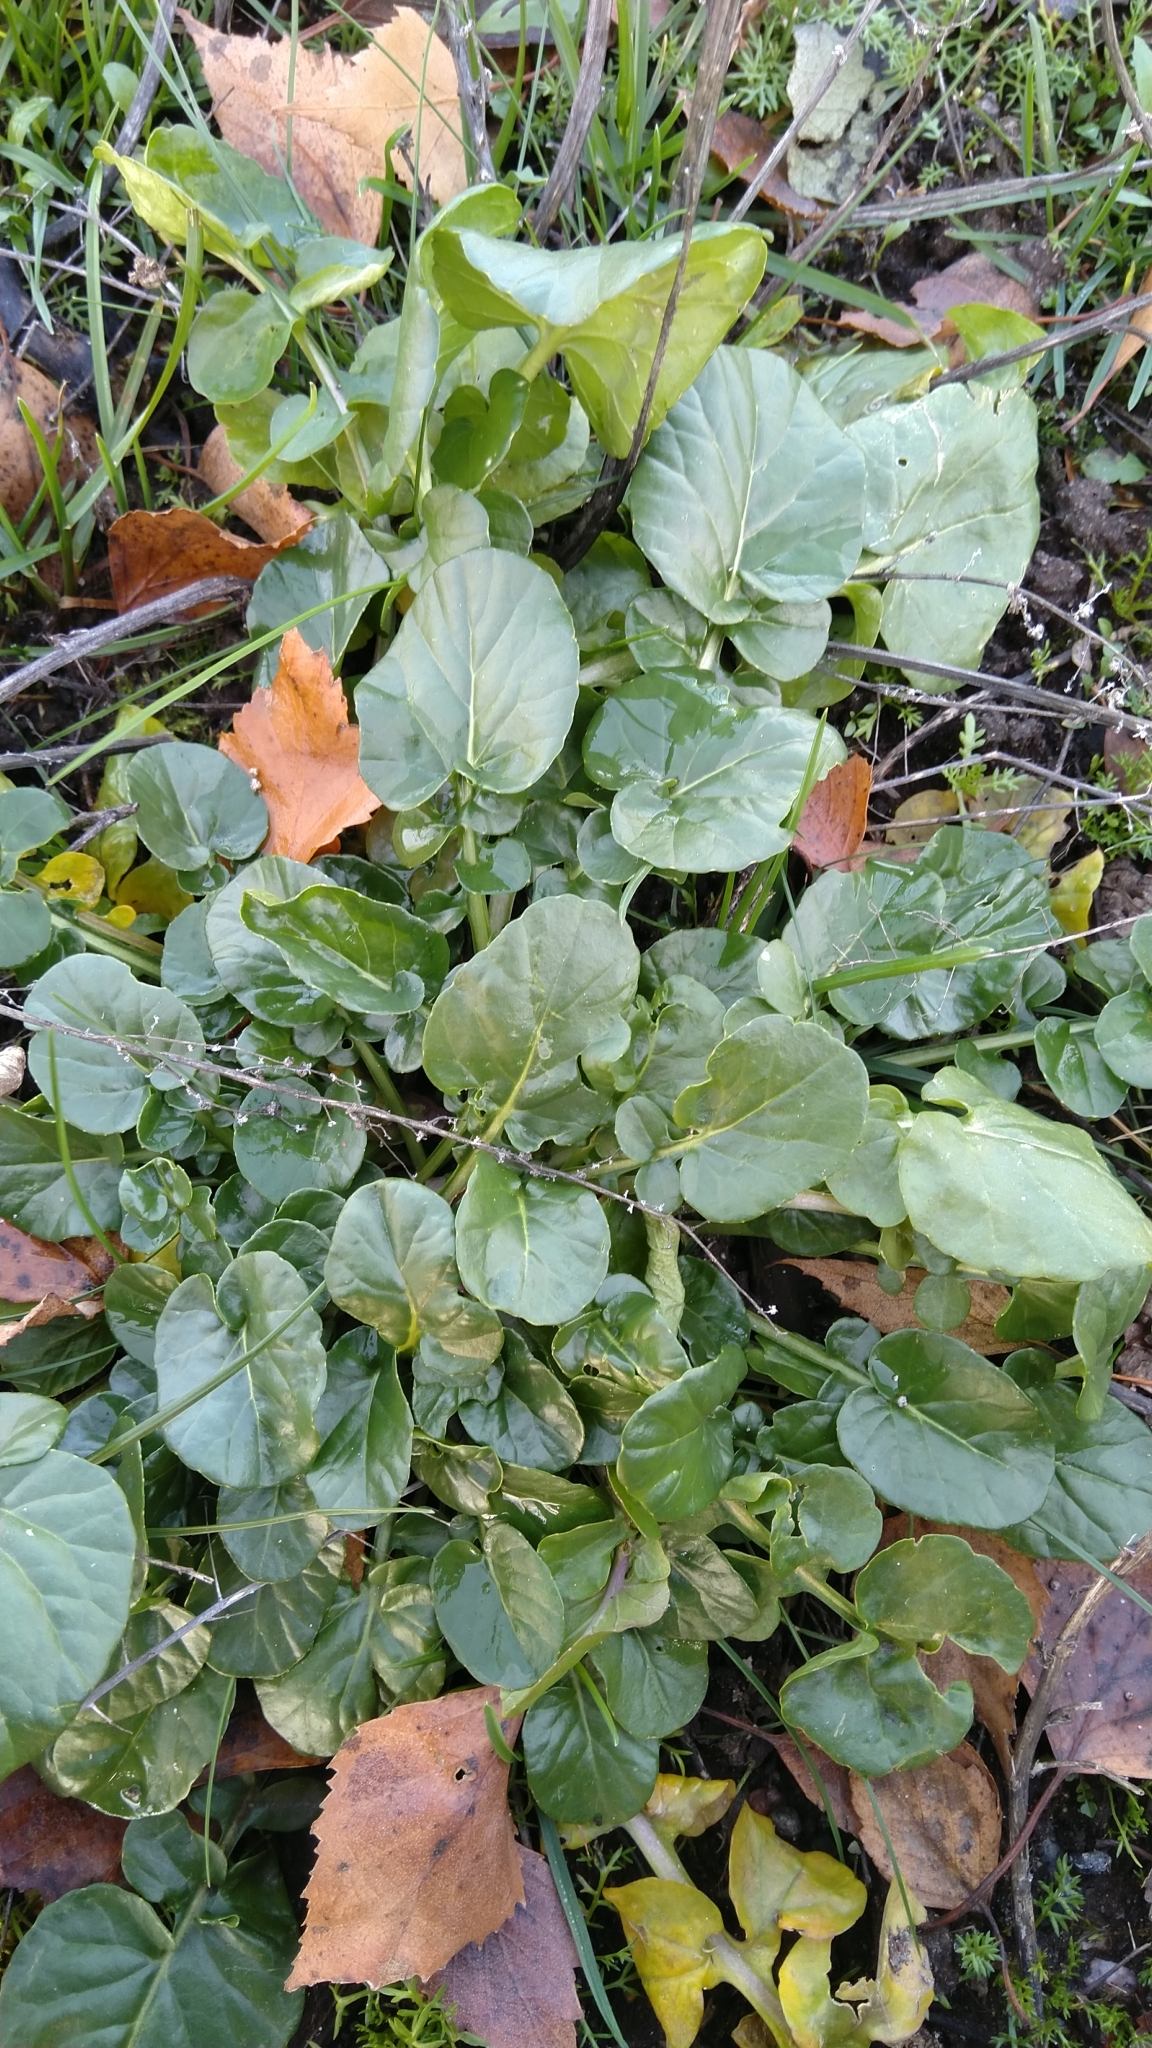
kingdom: Plantae
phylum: Tracheophyta
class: Magnoliopsida
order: Brassicales
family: Brassicaceae
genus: Barbarea
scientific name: Barbarea vulgaris
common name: Cressy-greens
